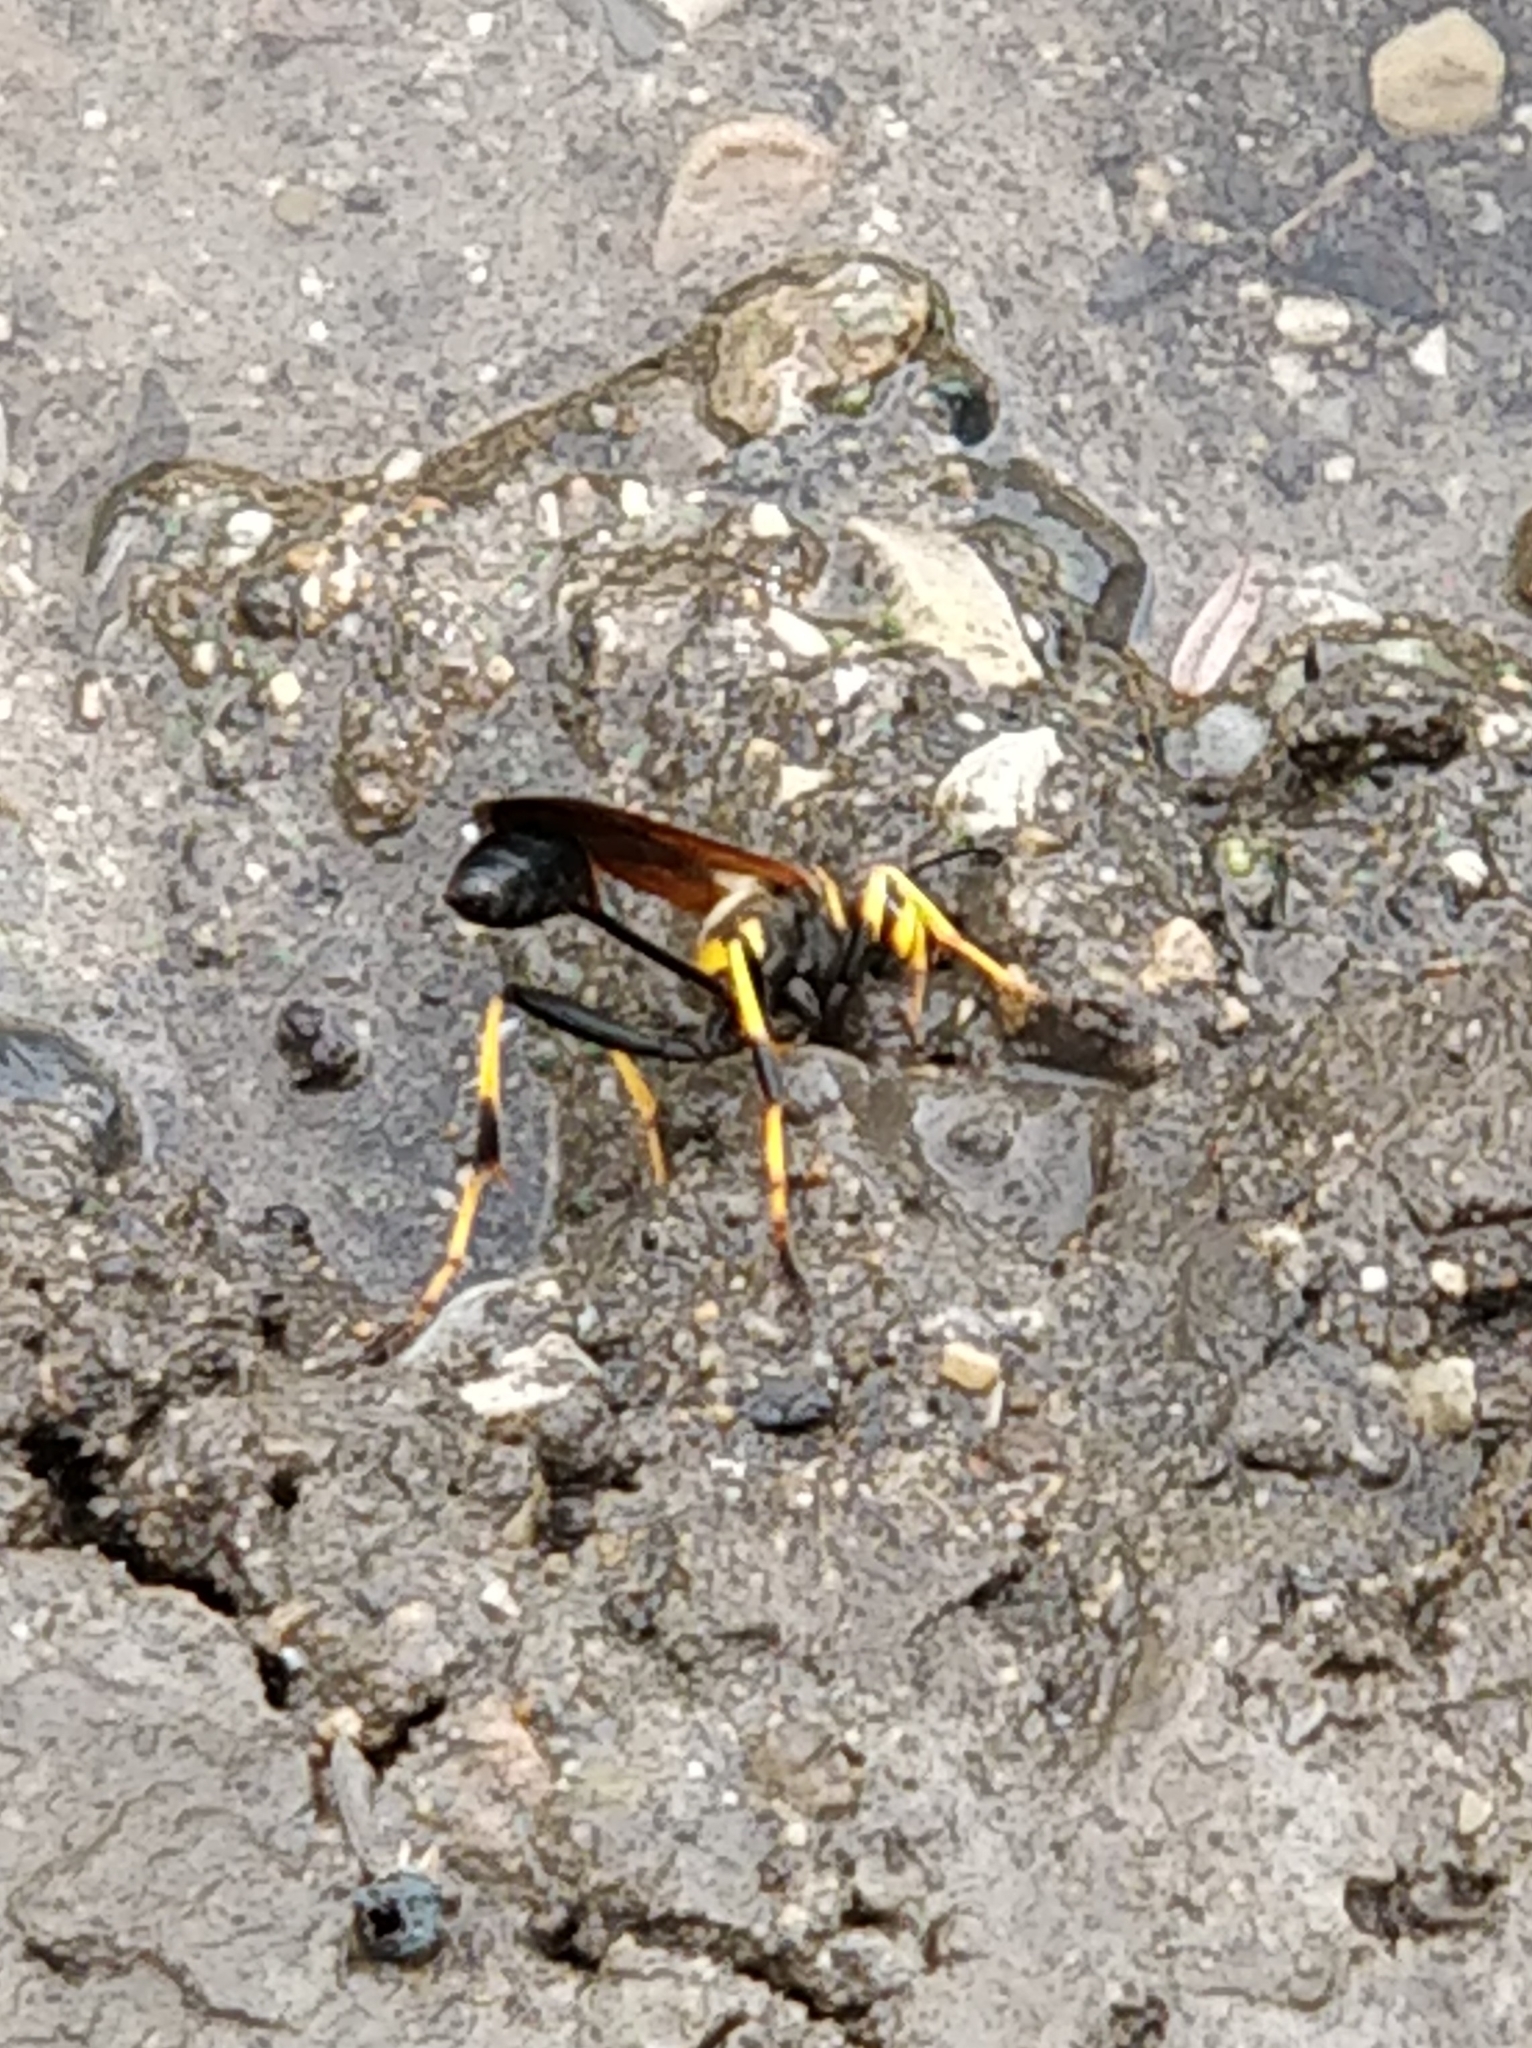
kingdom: Animalia
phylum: Arthropoda
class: Insecta
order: Hymenoptera
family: Sphecidae
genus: Sceliphron
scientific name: Sceliphron caementarium
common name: Mud dauber
